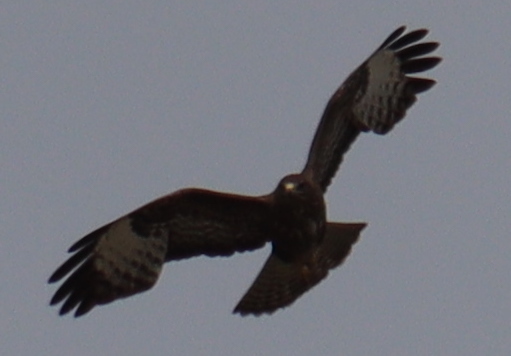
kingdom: Animalia
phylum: Chordata
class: Aves
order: Accipitriformes
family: Accipitridae
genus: Buteo
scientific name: Buteo buteo
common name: Common buzzard
